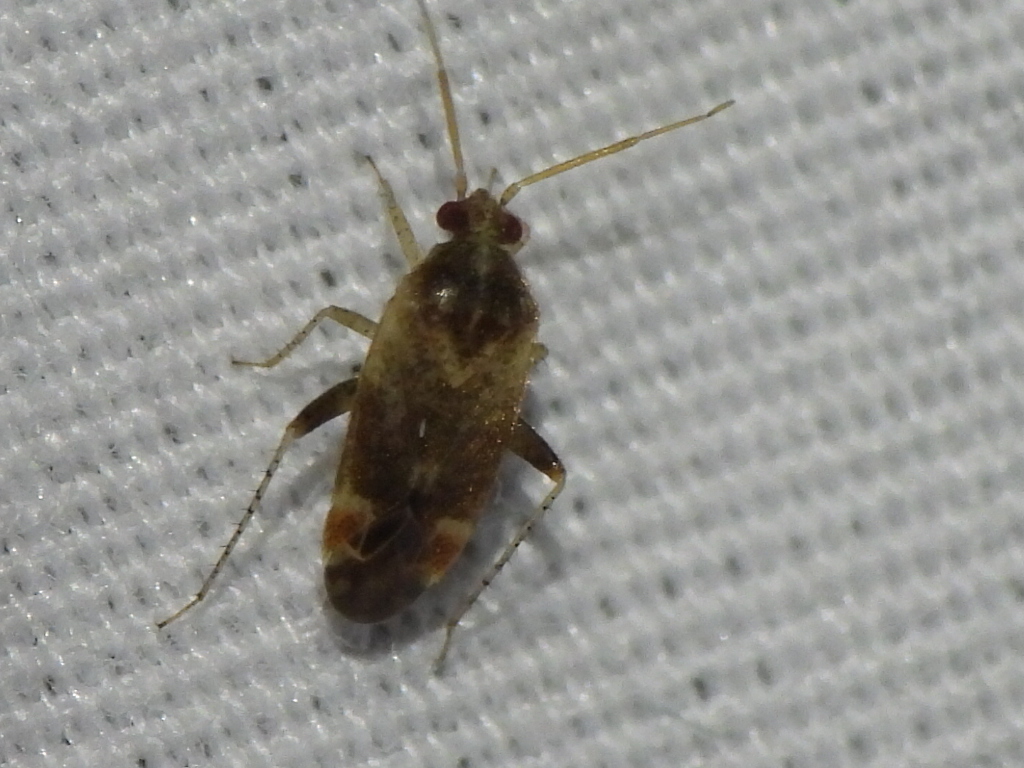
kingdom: Animalia
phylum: Arthropoda
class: Insecta
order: Hemiptera
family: Miridae
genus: Hamatophylus
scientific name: Hamatophylus guttulosus
